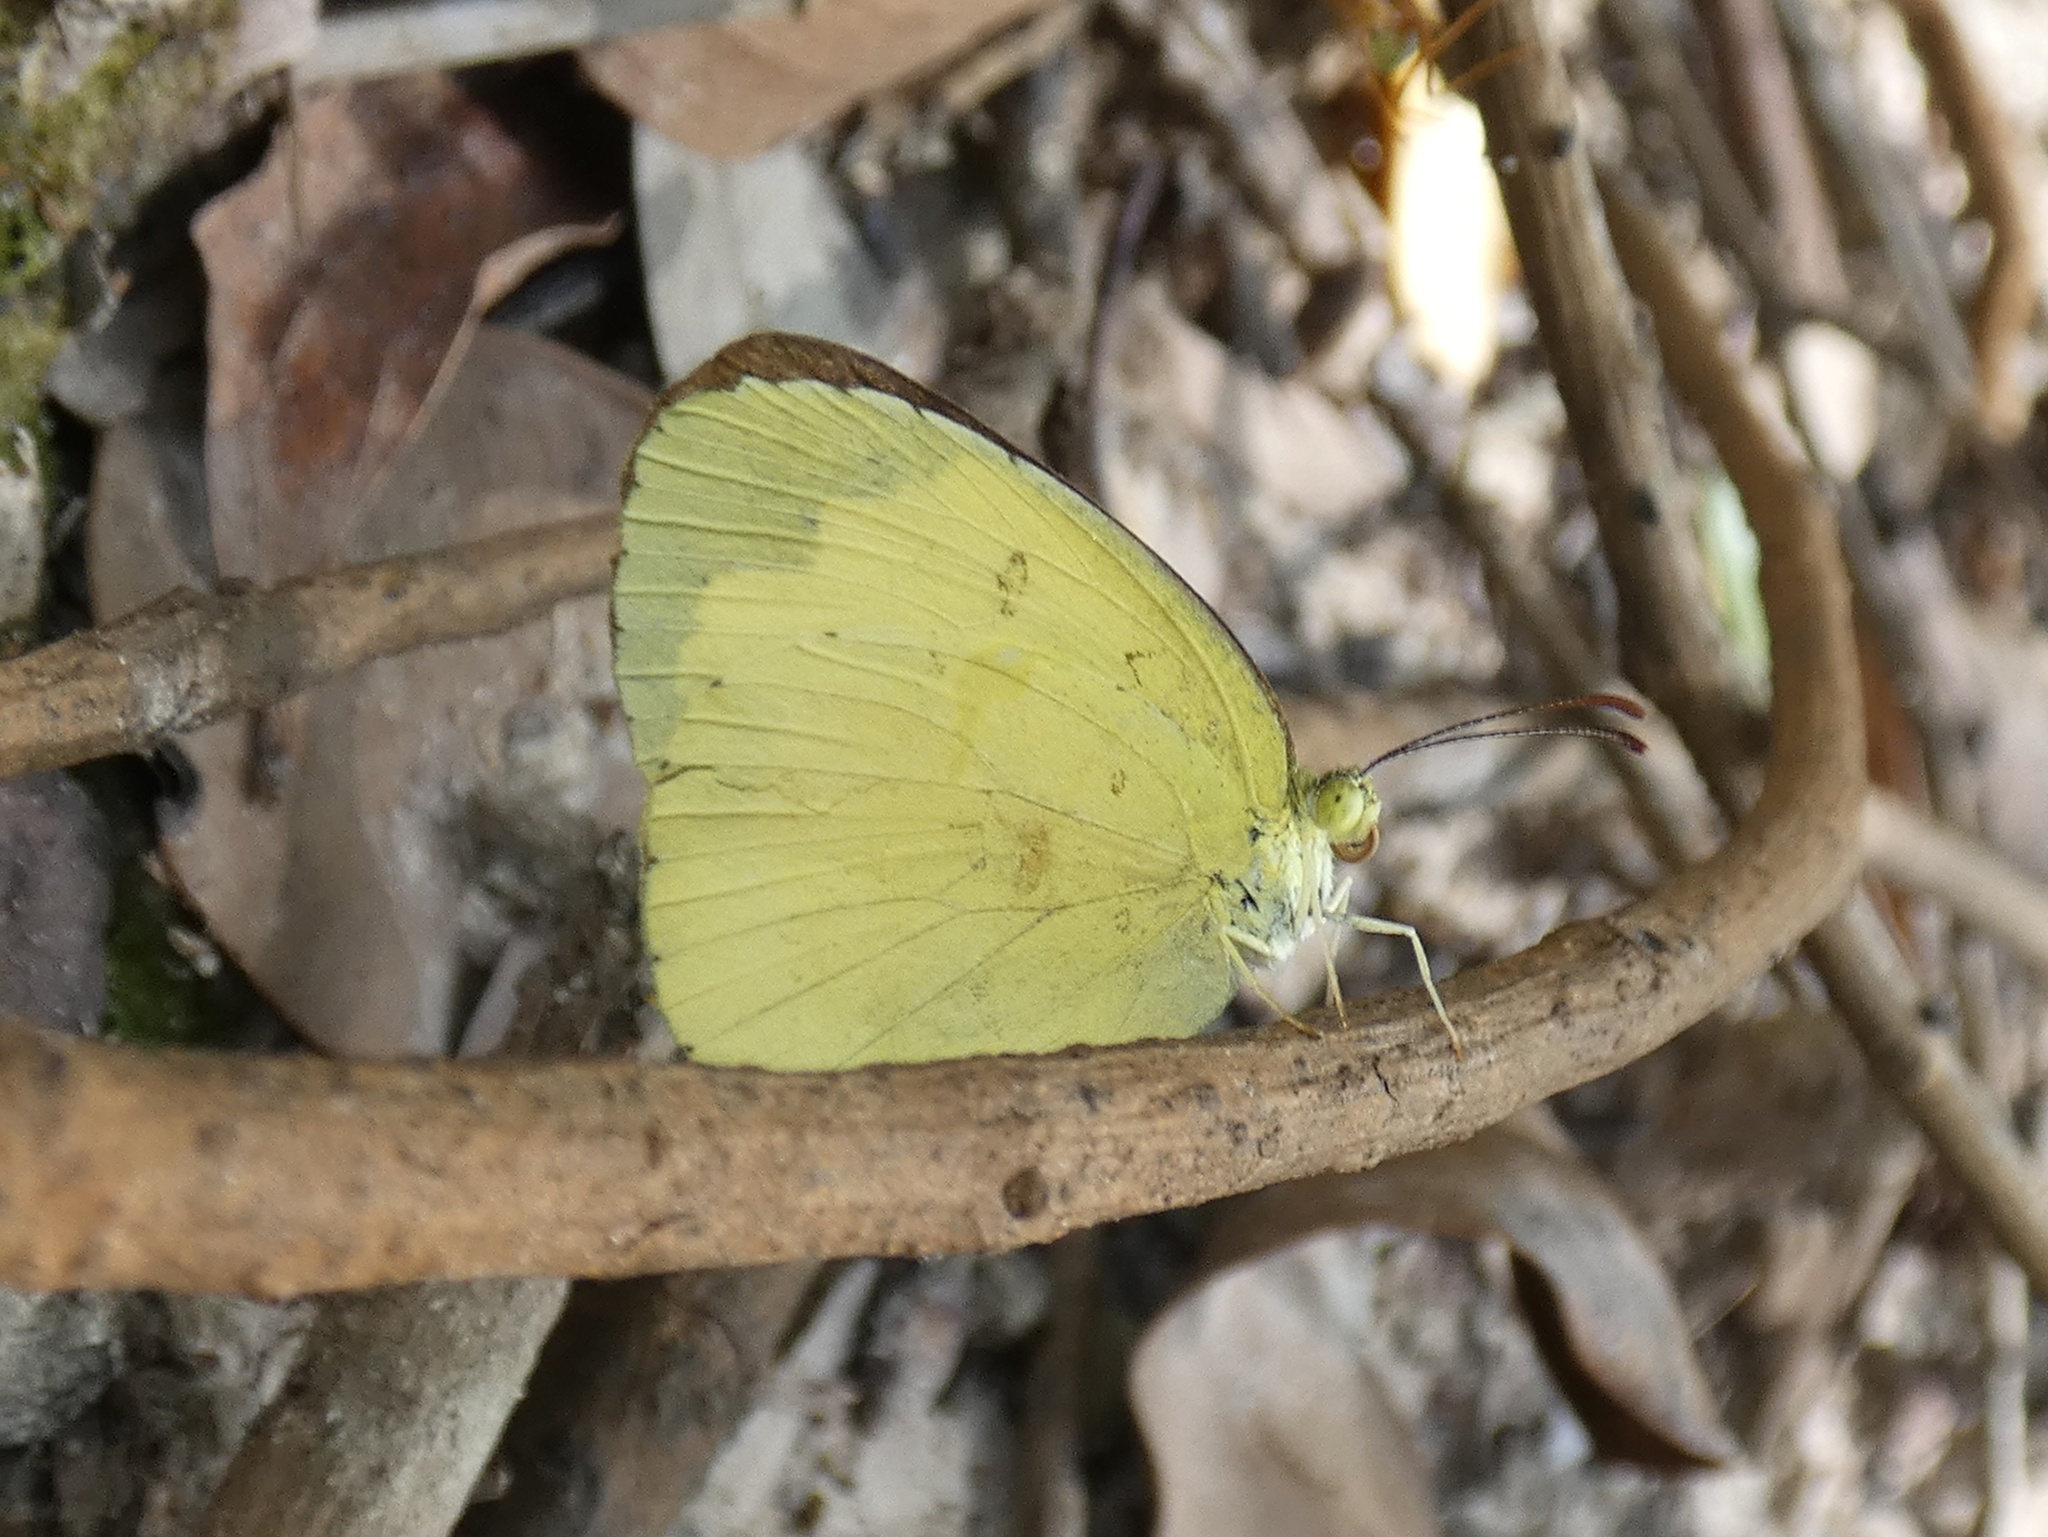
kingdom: Animalia
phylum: Arthropoda
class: Insecta
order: Lepidoptera
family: Pieridae
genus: Eurema
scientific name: Eurema hecabe
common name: Pale grass yellow
